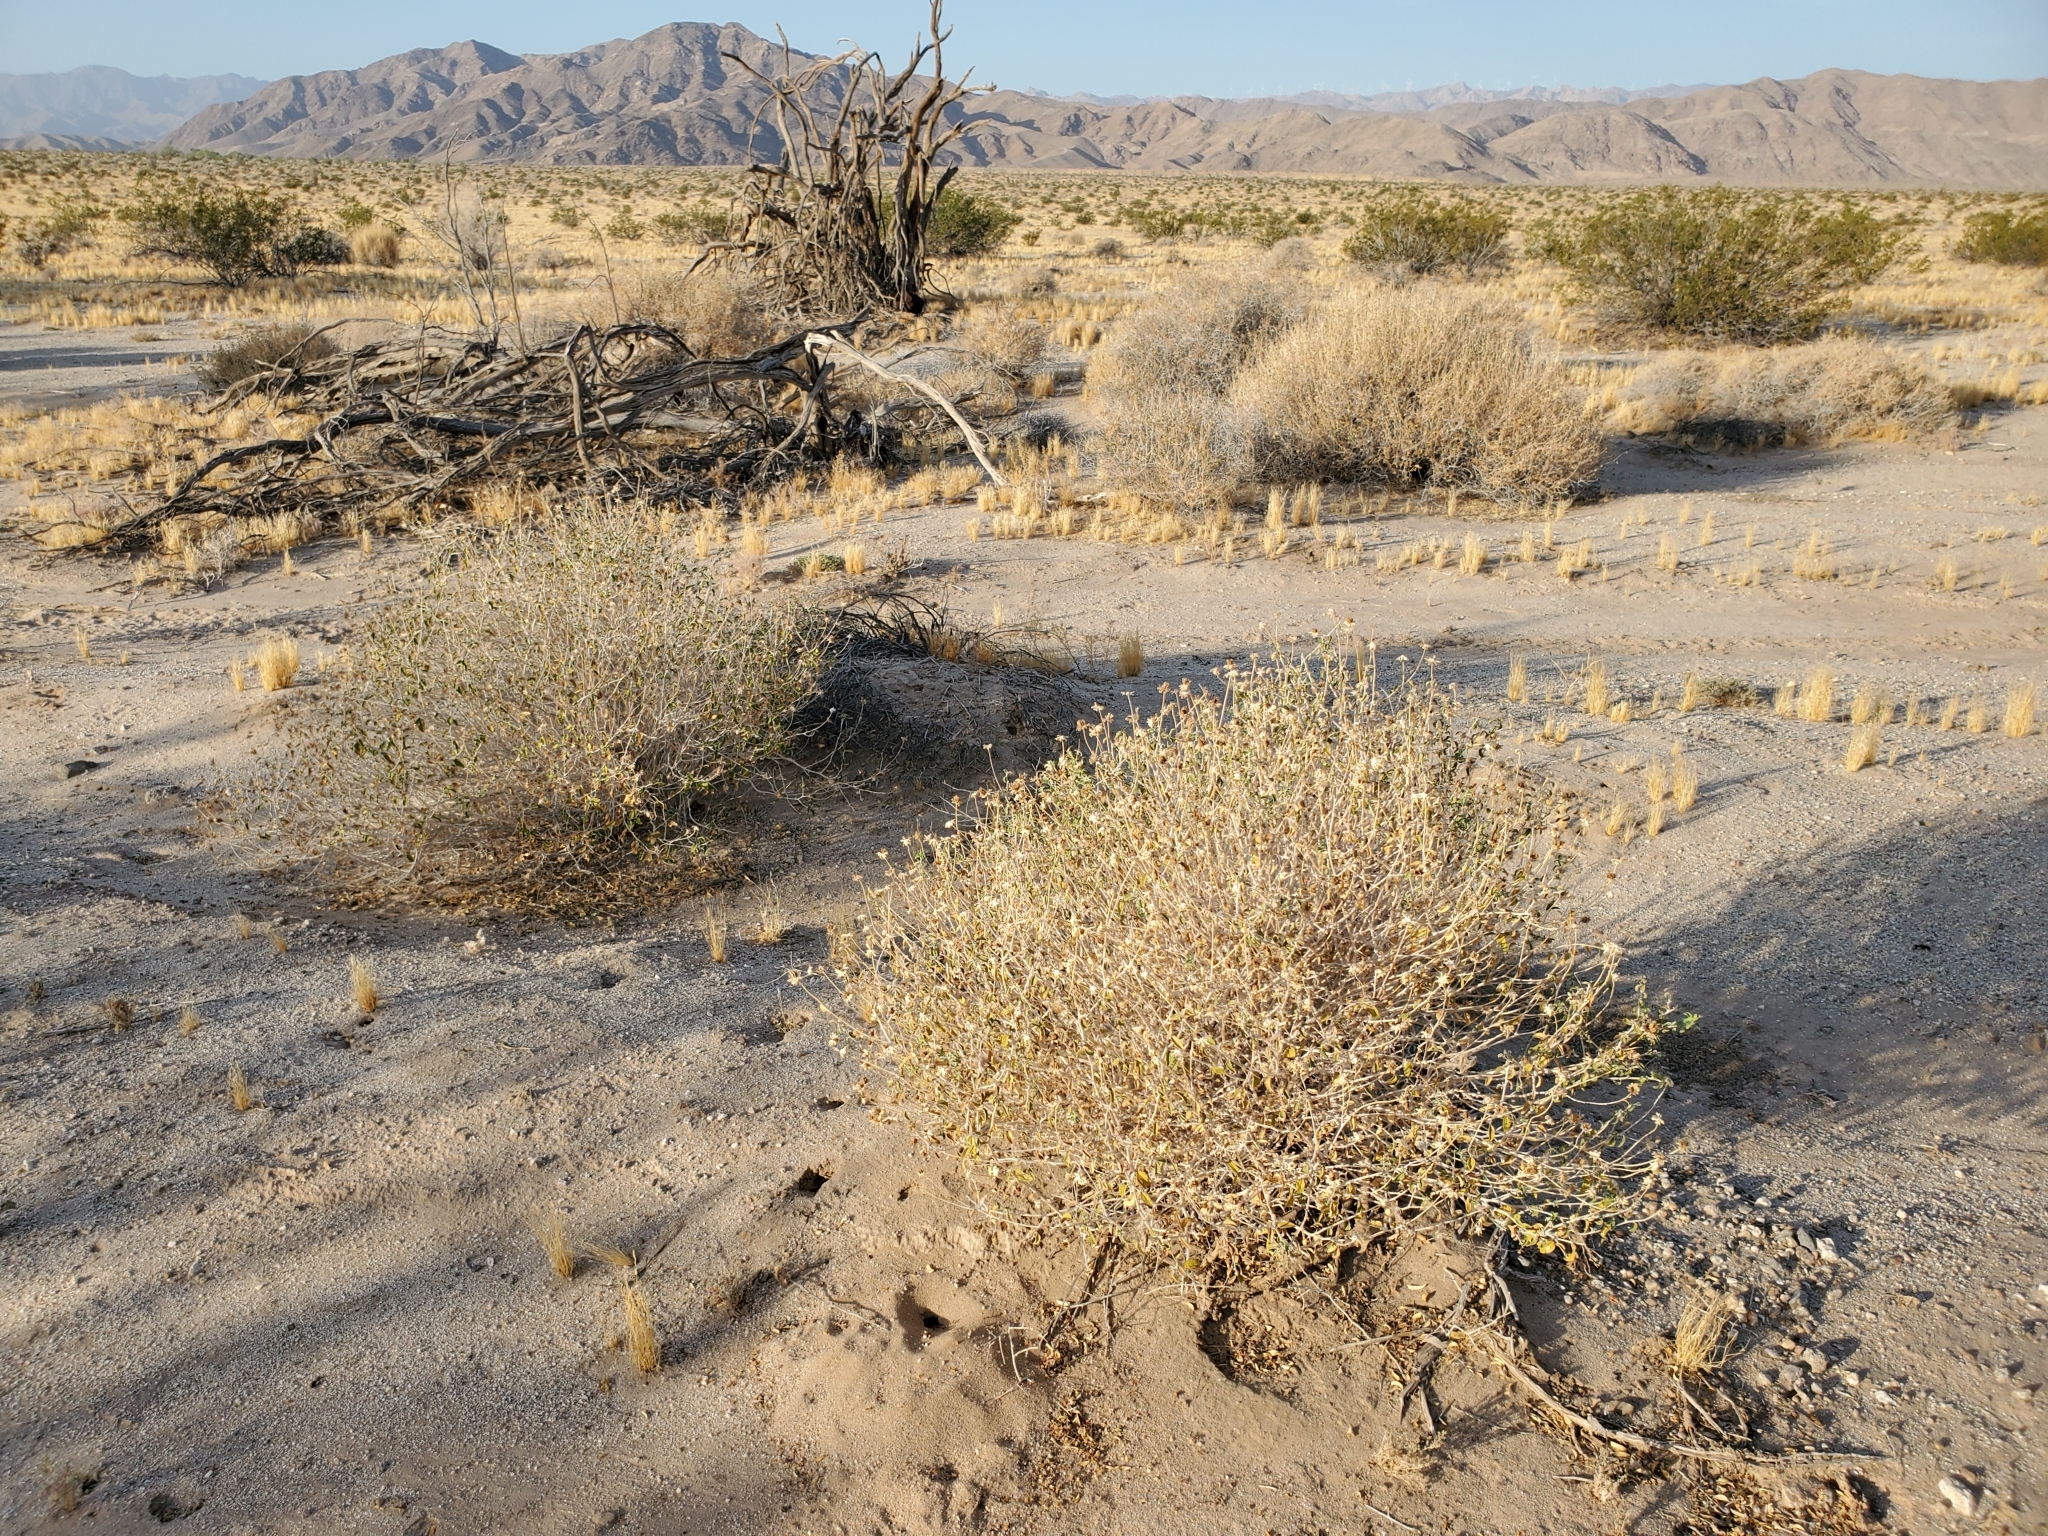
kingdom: Plantae
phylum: Tracheophyta
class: Magnoliopsida
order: Asterales
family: Asteraceae
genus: Encelia
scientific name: Encelia frutescens
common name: Bush encelia
